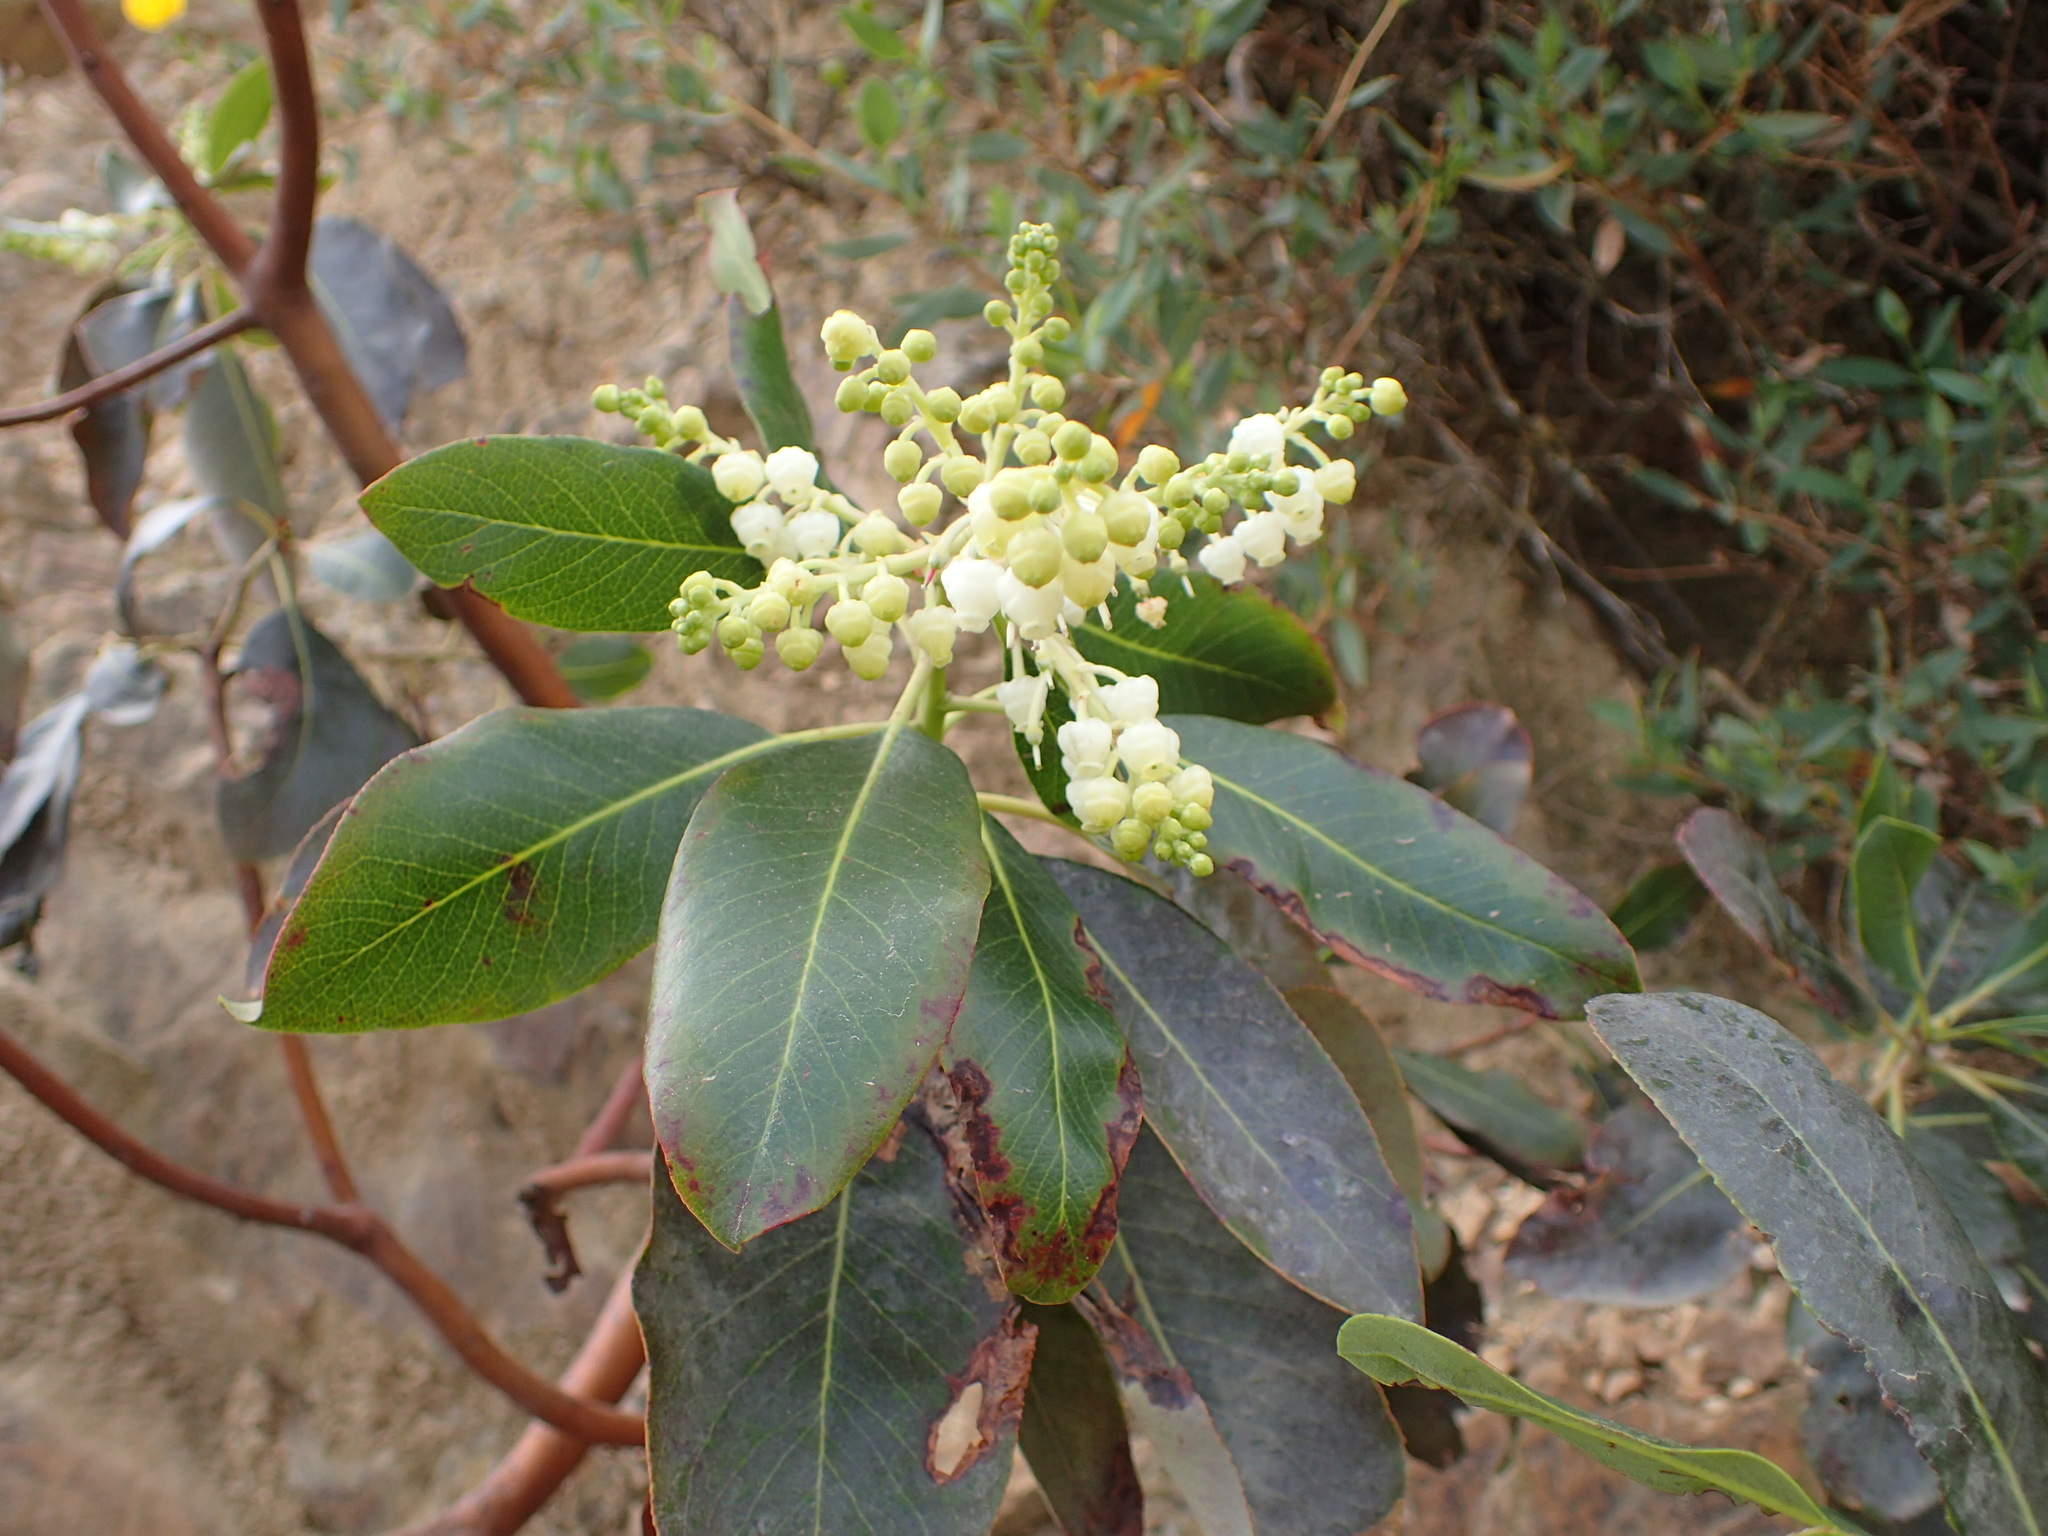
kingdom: Plantae
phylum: Tracheophyta
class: Magnoliopsida
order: Ericales
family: Ericaceae
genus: Arbutus
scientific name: Arbutus menziesii
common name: Pacific madrone
